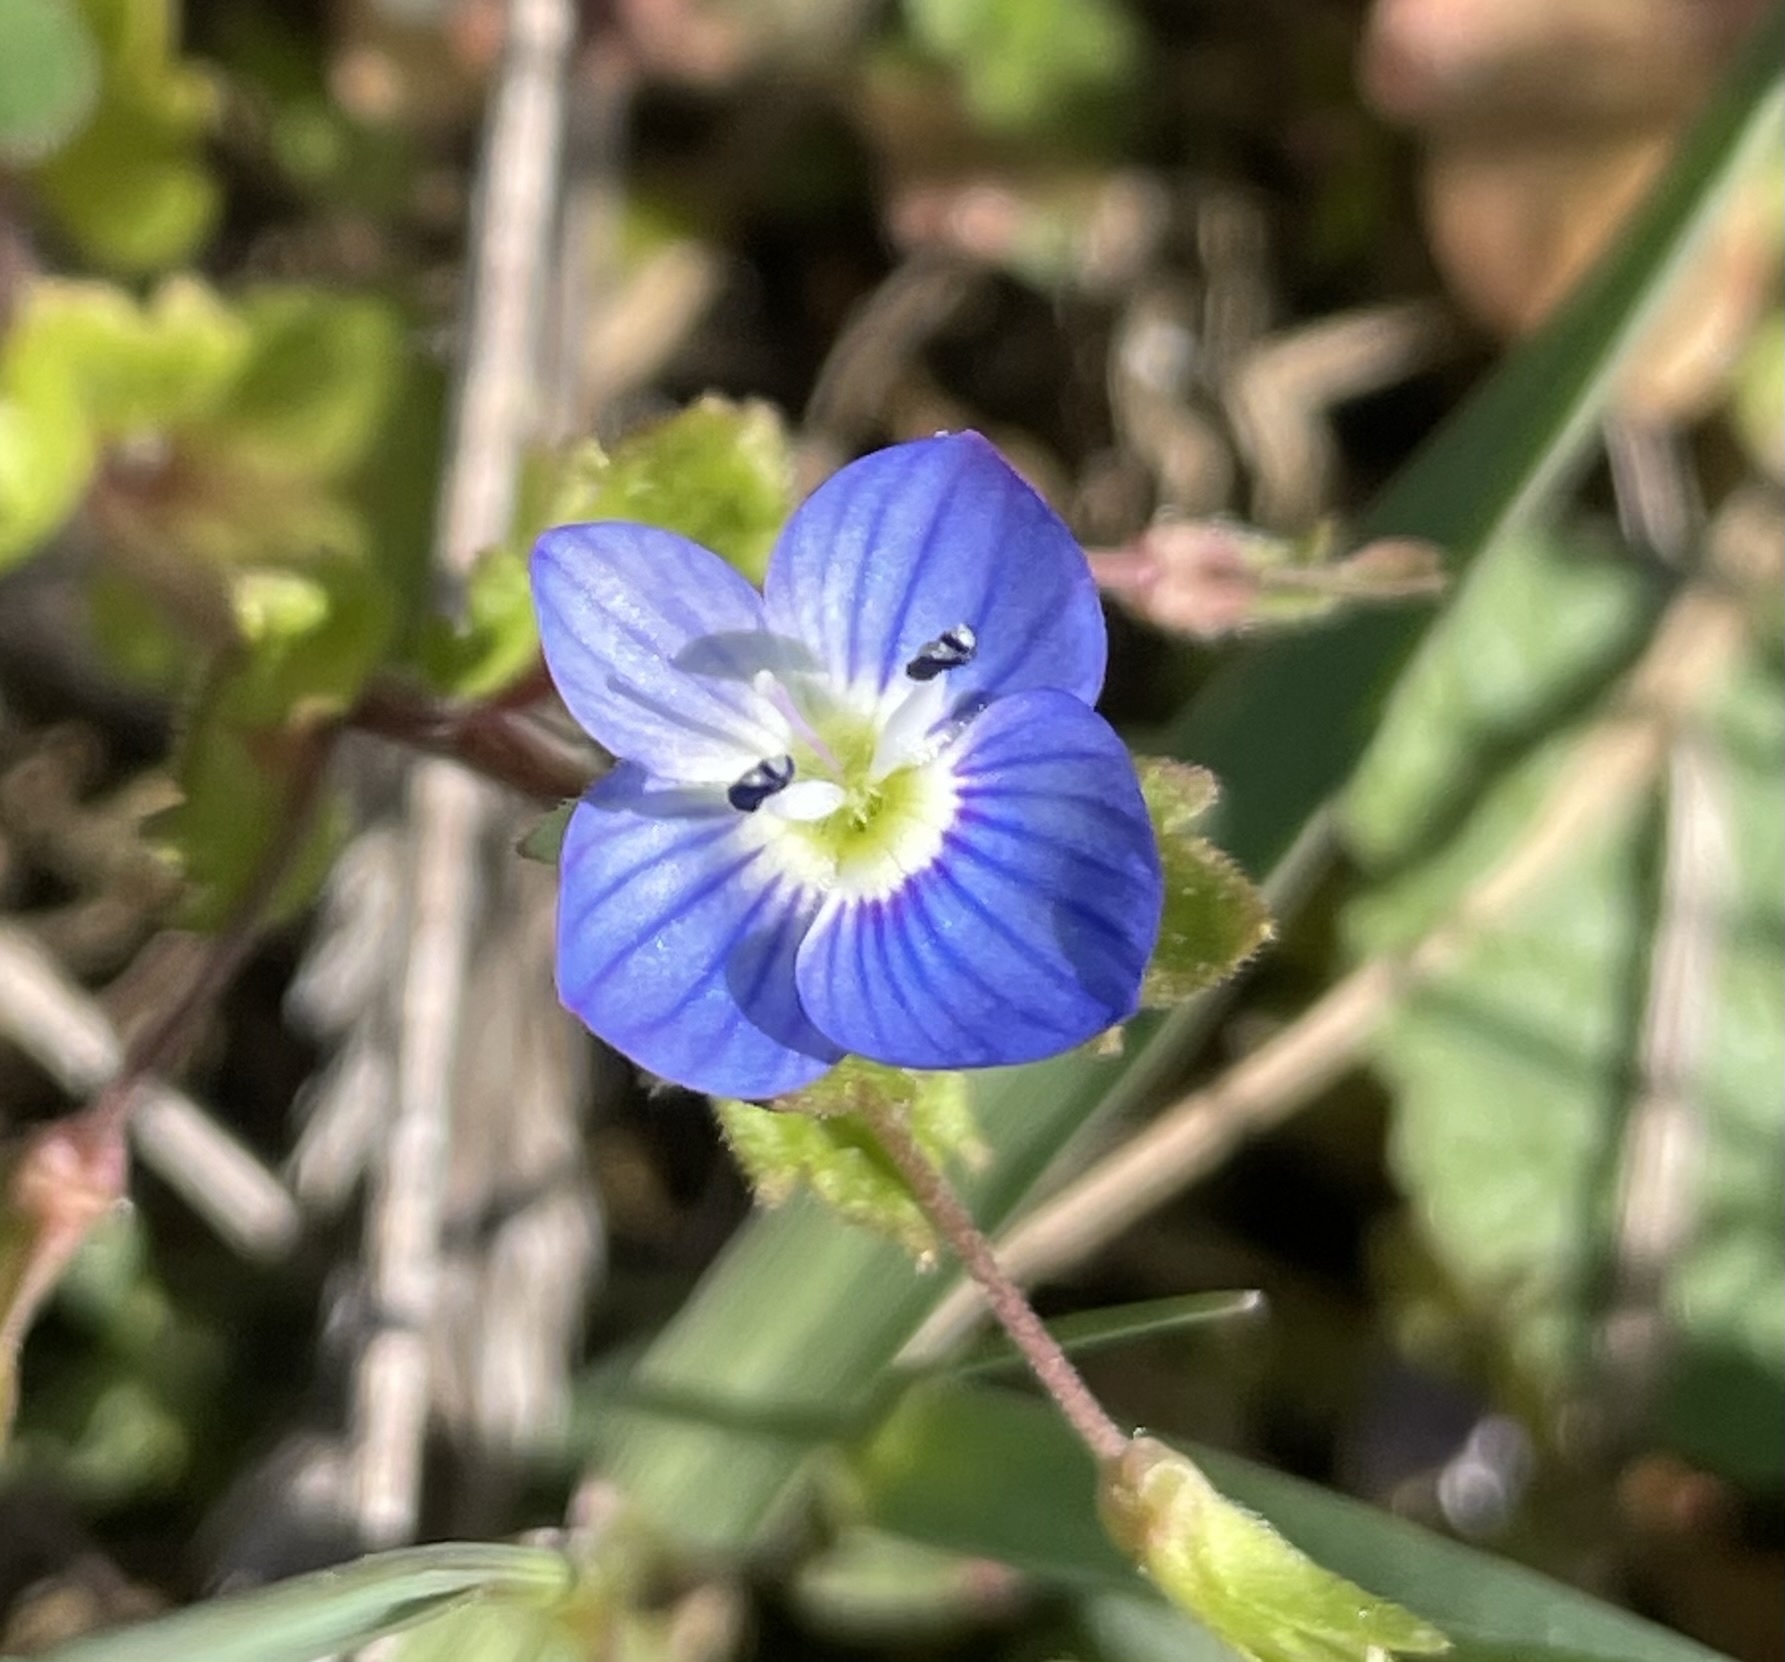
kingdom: Plantae
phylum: Tracheophyta
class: Magnoliopsida
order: Lamiales
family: Plantaginaceae
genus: Veronica
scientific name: Veronica persica
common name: Common field-speedwell
